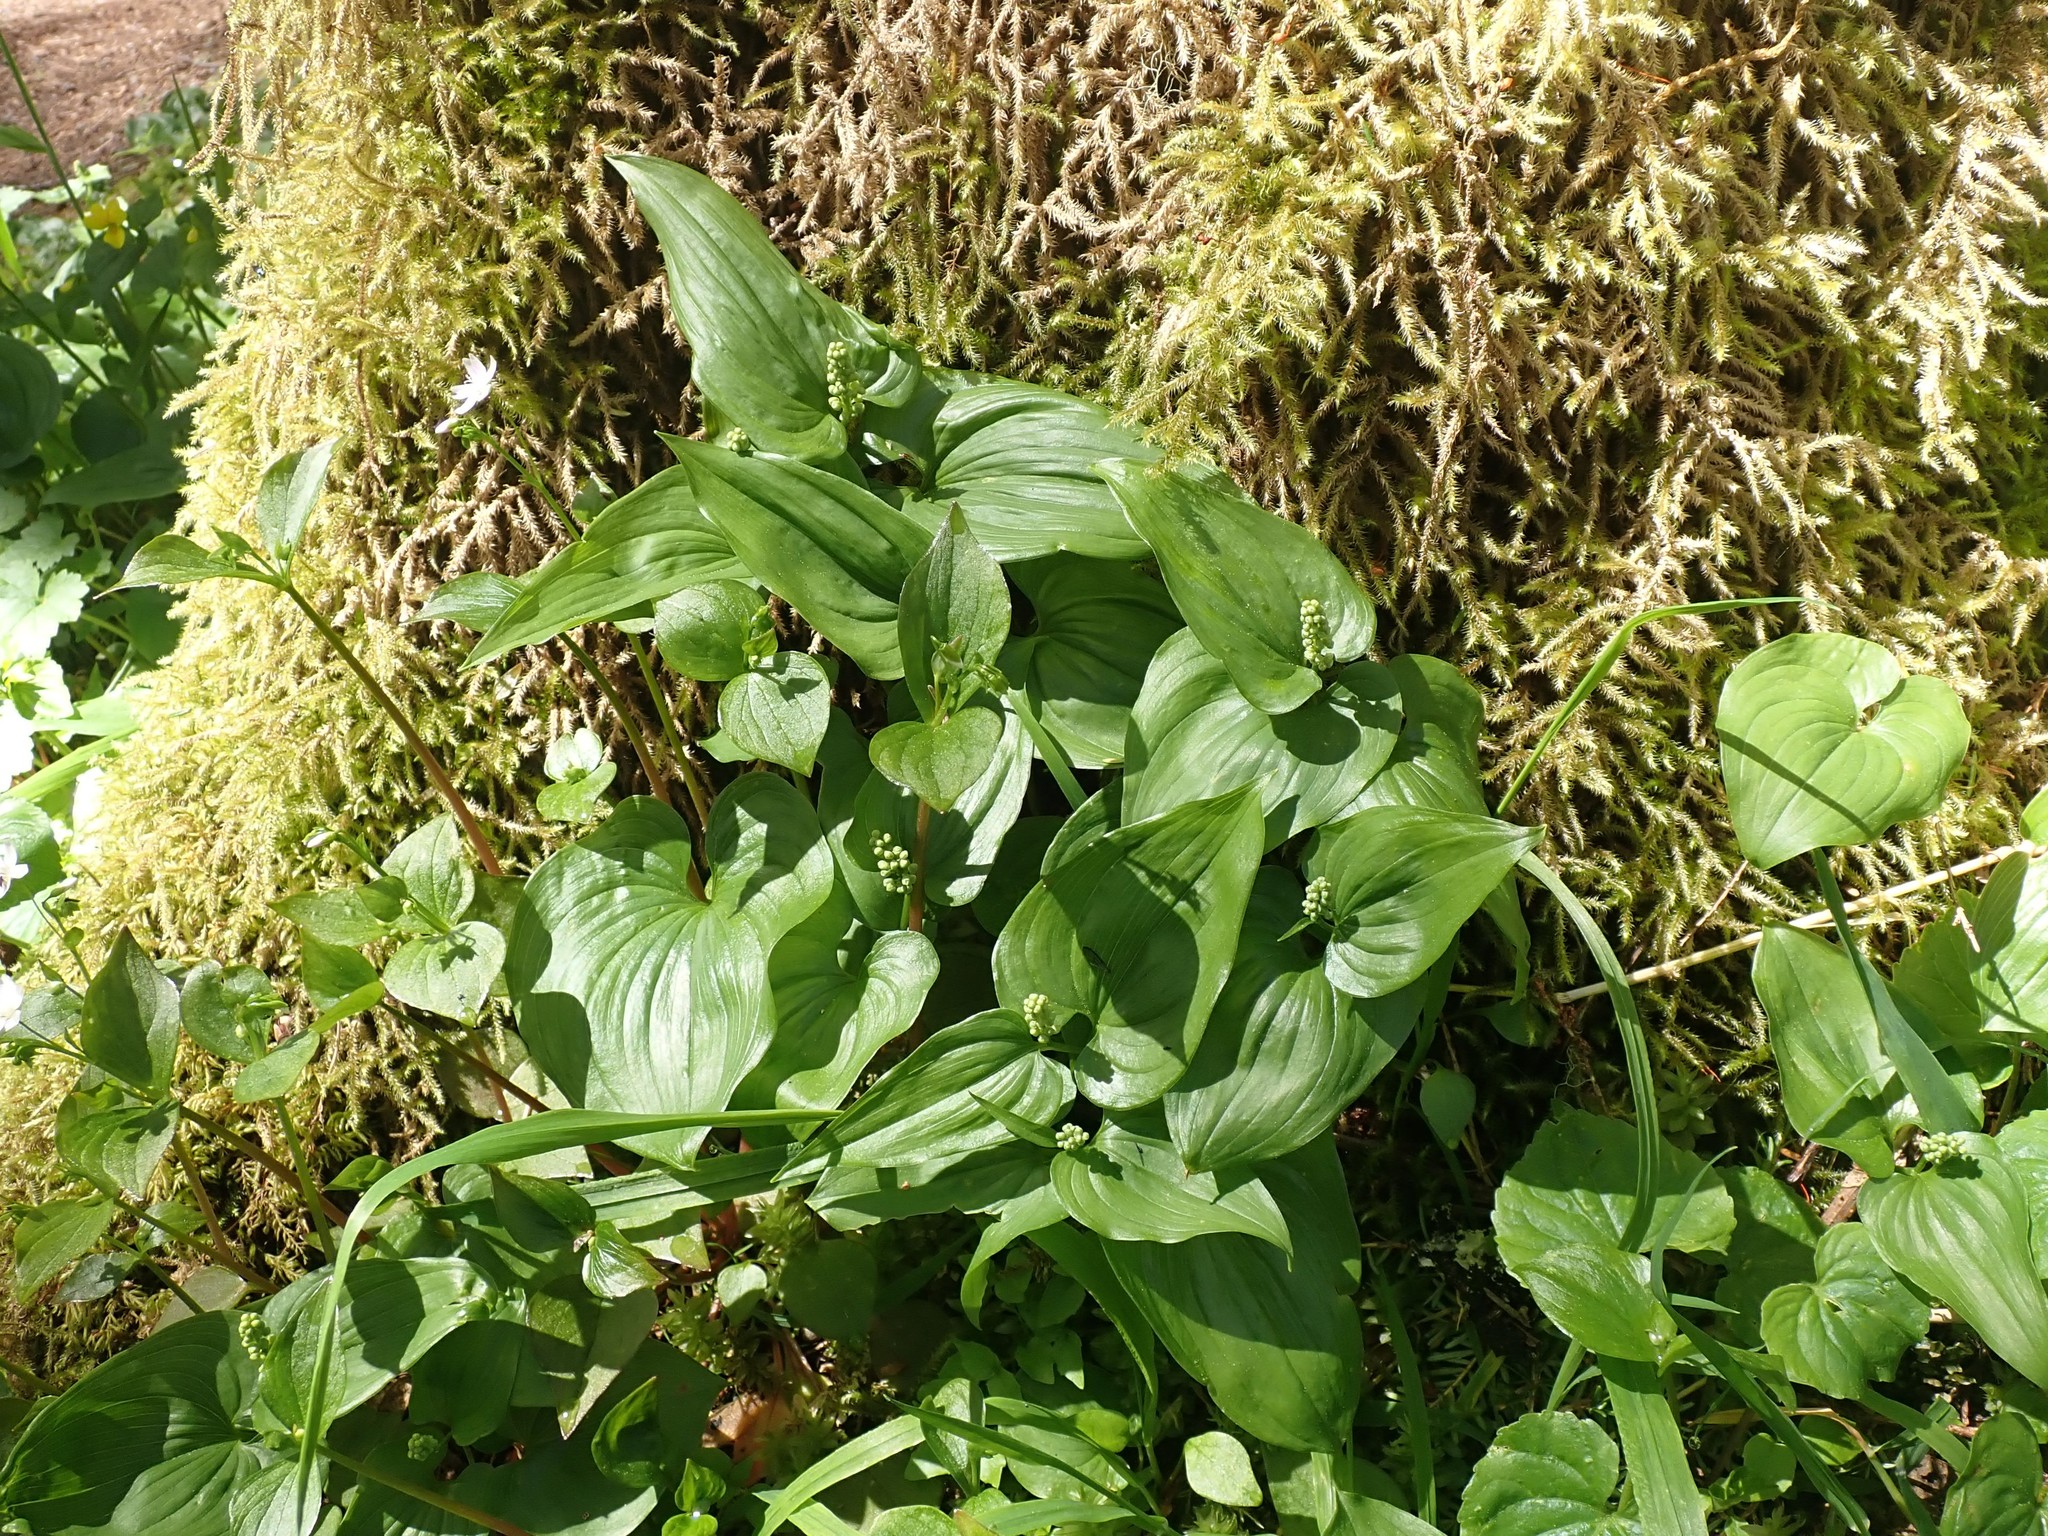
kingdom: Plantae
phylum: Tracheophyta
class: Liliopsida
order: Asparagales
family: Asparagaceae
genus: Maianthemum
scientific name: Maianthemum dilatatum
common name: False lily-of-the-valley
